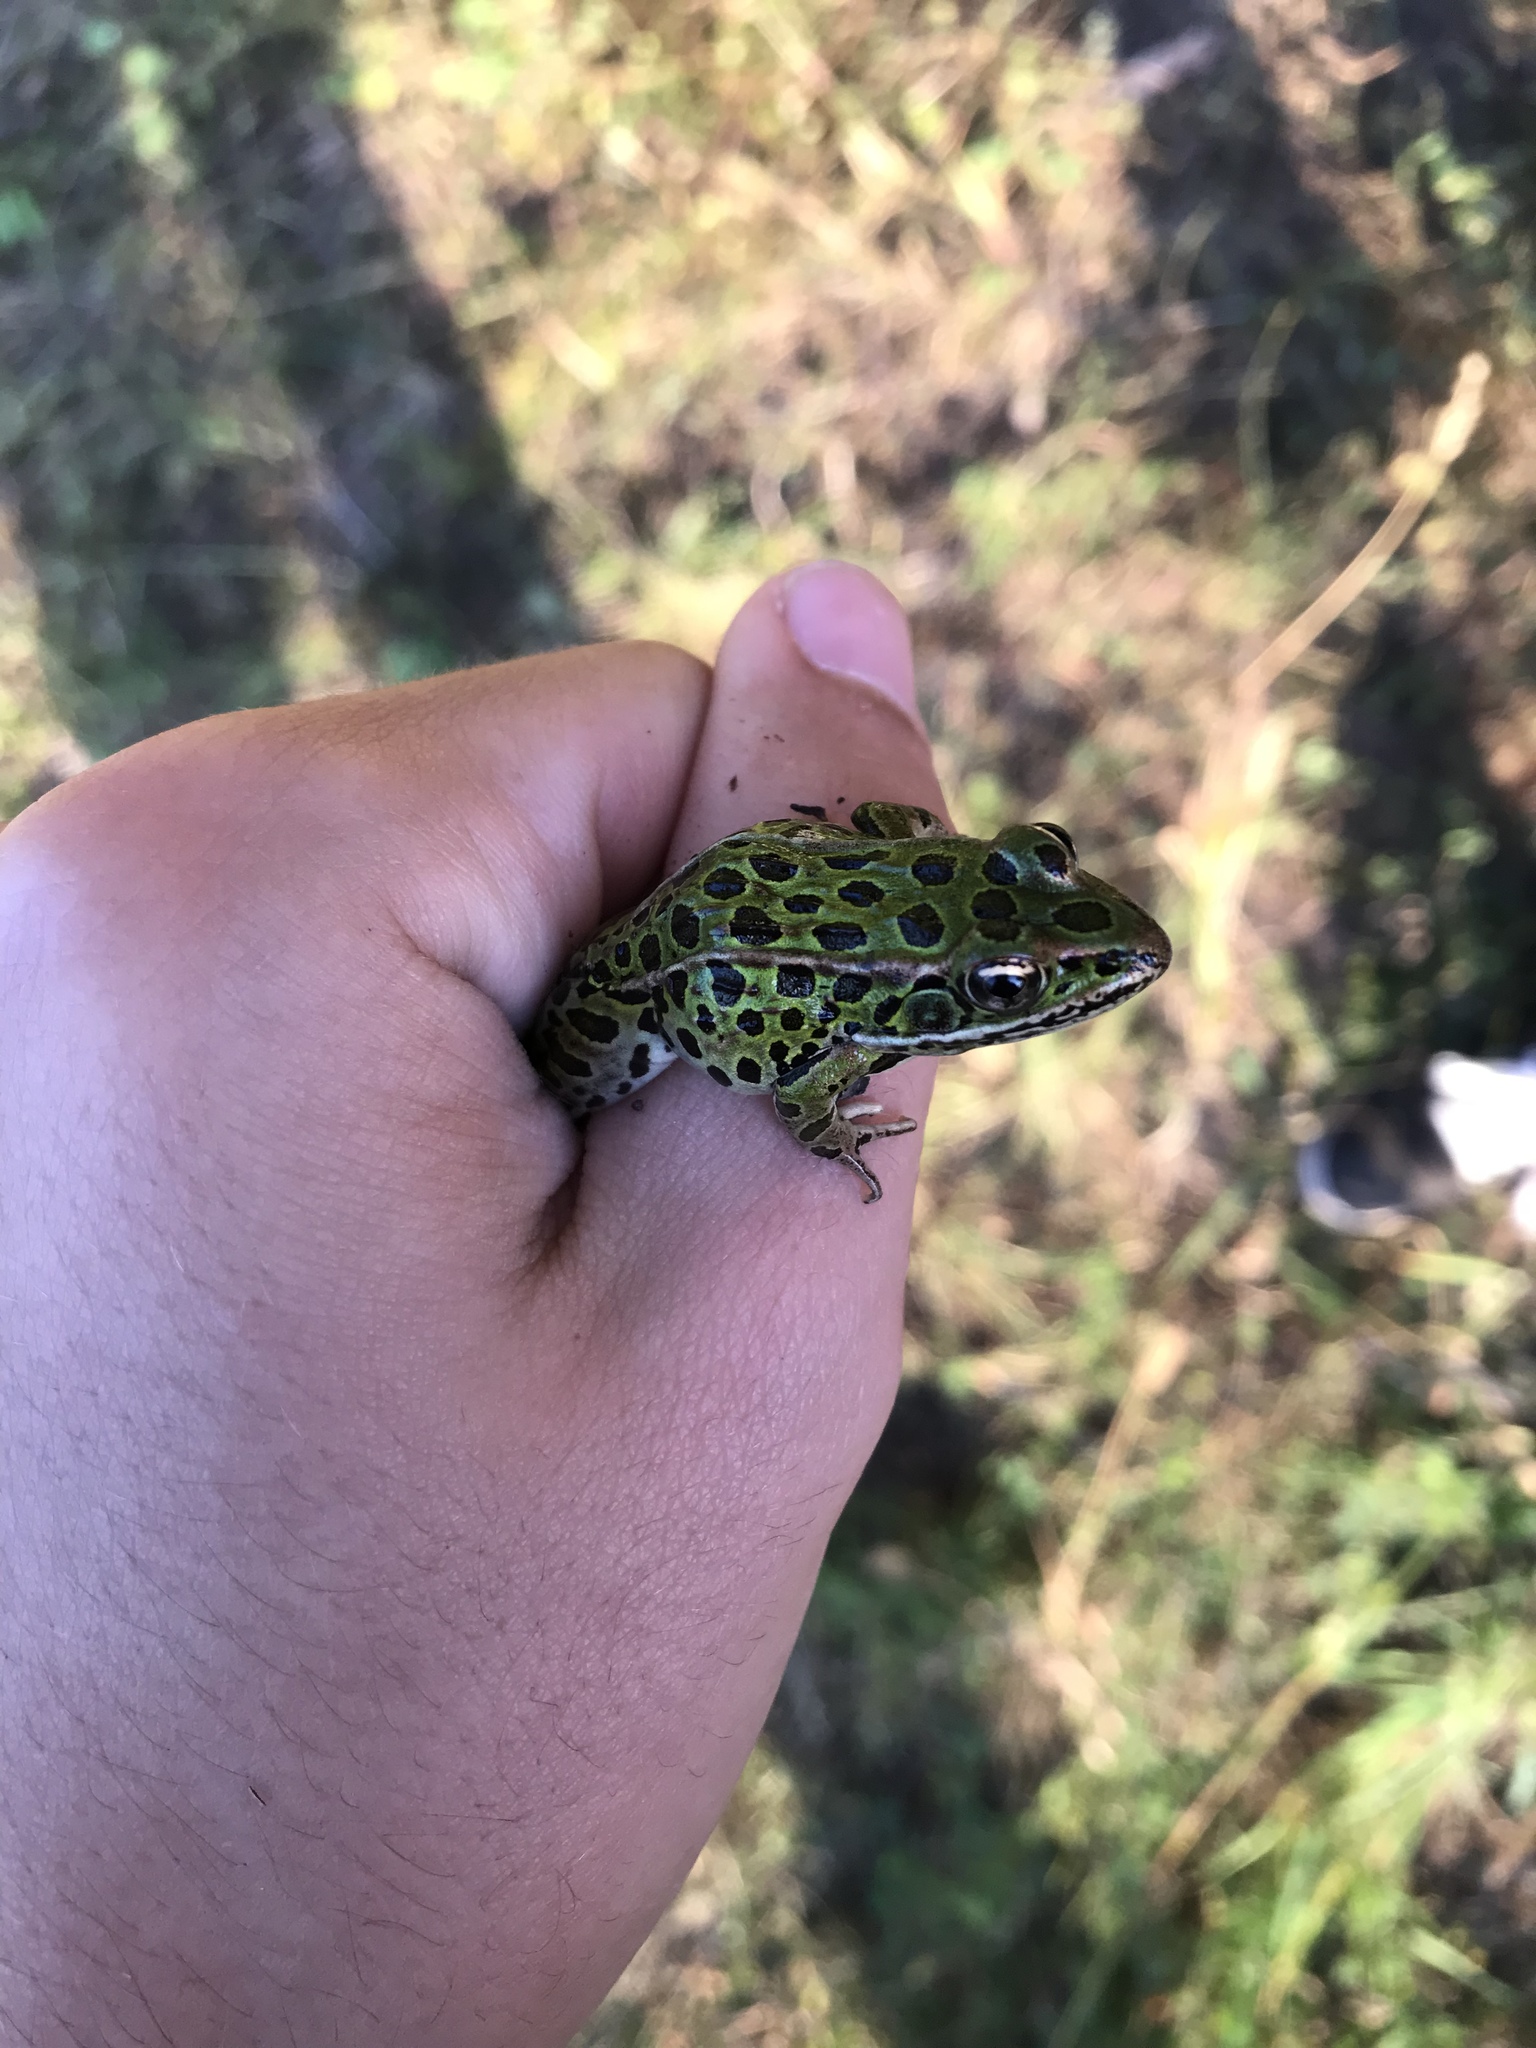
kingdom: Animalia
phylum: Chordata
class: Amphibia
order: Anura
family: Ranidae
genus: Lithobates
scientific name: Lithobates pipiens
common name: Northern leopard frog
